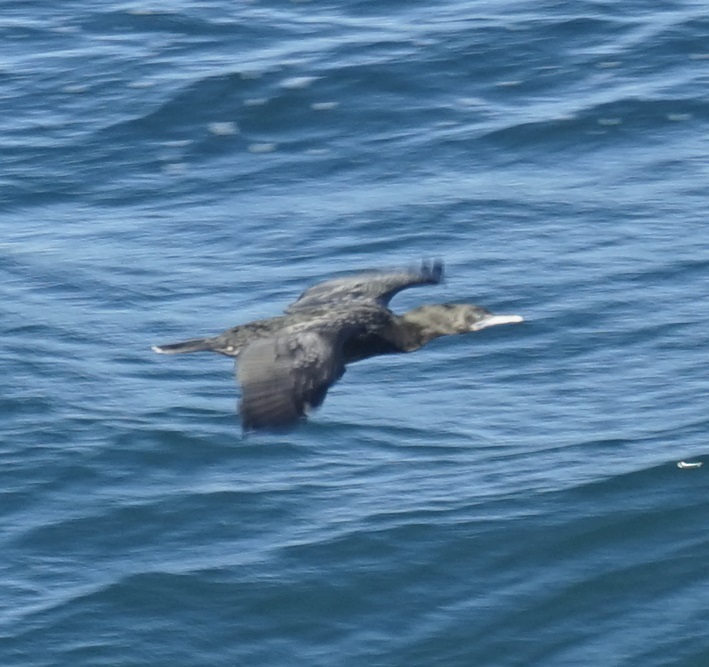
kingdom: Animalia
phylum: Chordata
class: Aves
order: Suliformes
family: Phalacrocoracidae
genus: Phalacrocorax
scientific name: Phalacrocorax sulcirostris
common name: Little black cormorant
